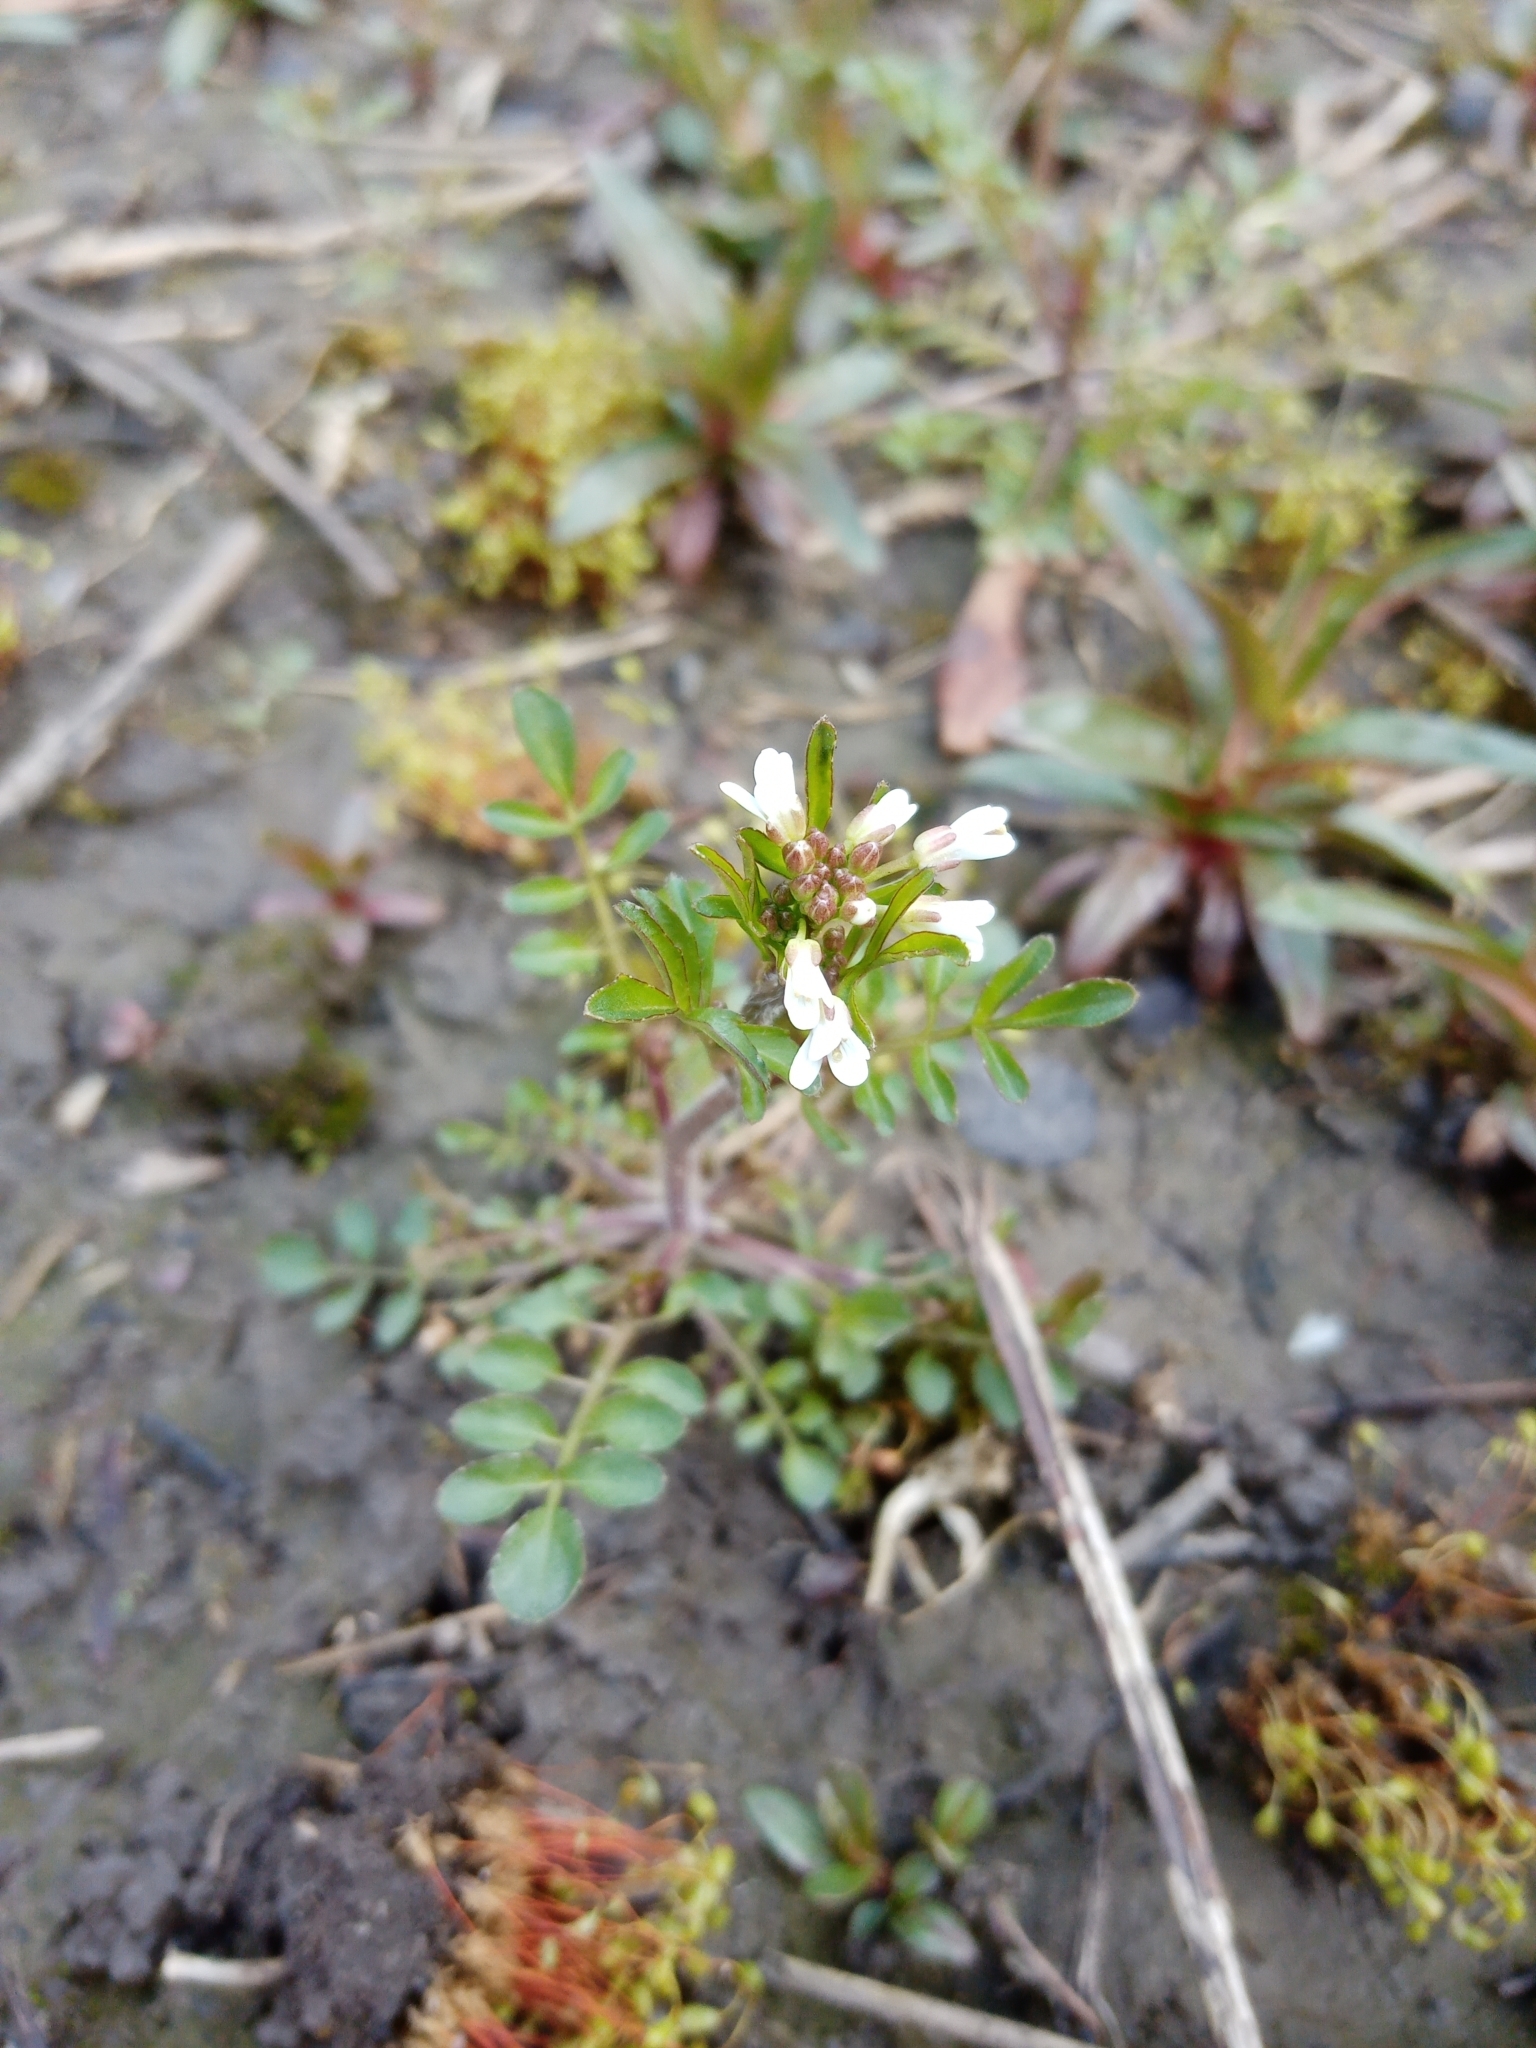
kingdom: Plantae
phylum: Tracheophyta
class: Magnoliopsida
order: Brassicales
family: Brassicaceae
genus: Cardamine
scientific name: Cardamine flexuosa
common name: Woodland bittercress
